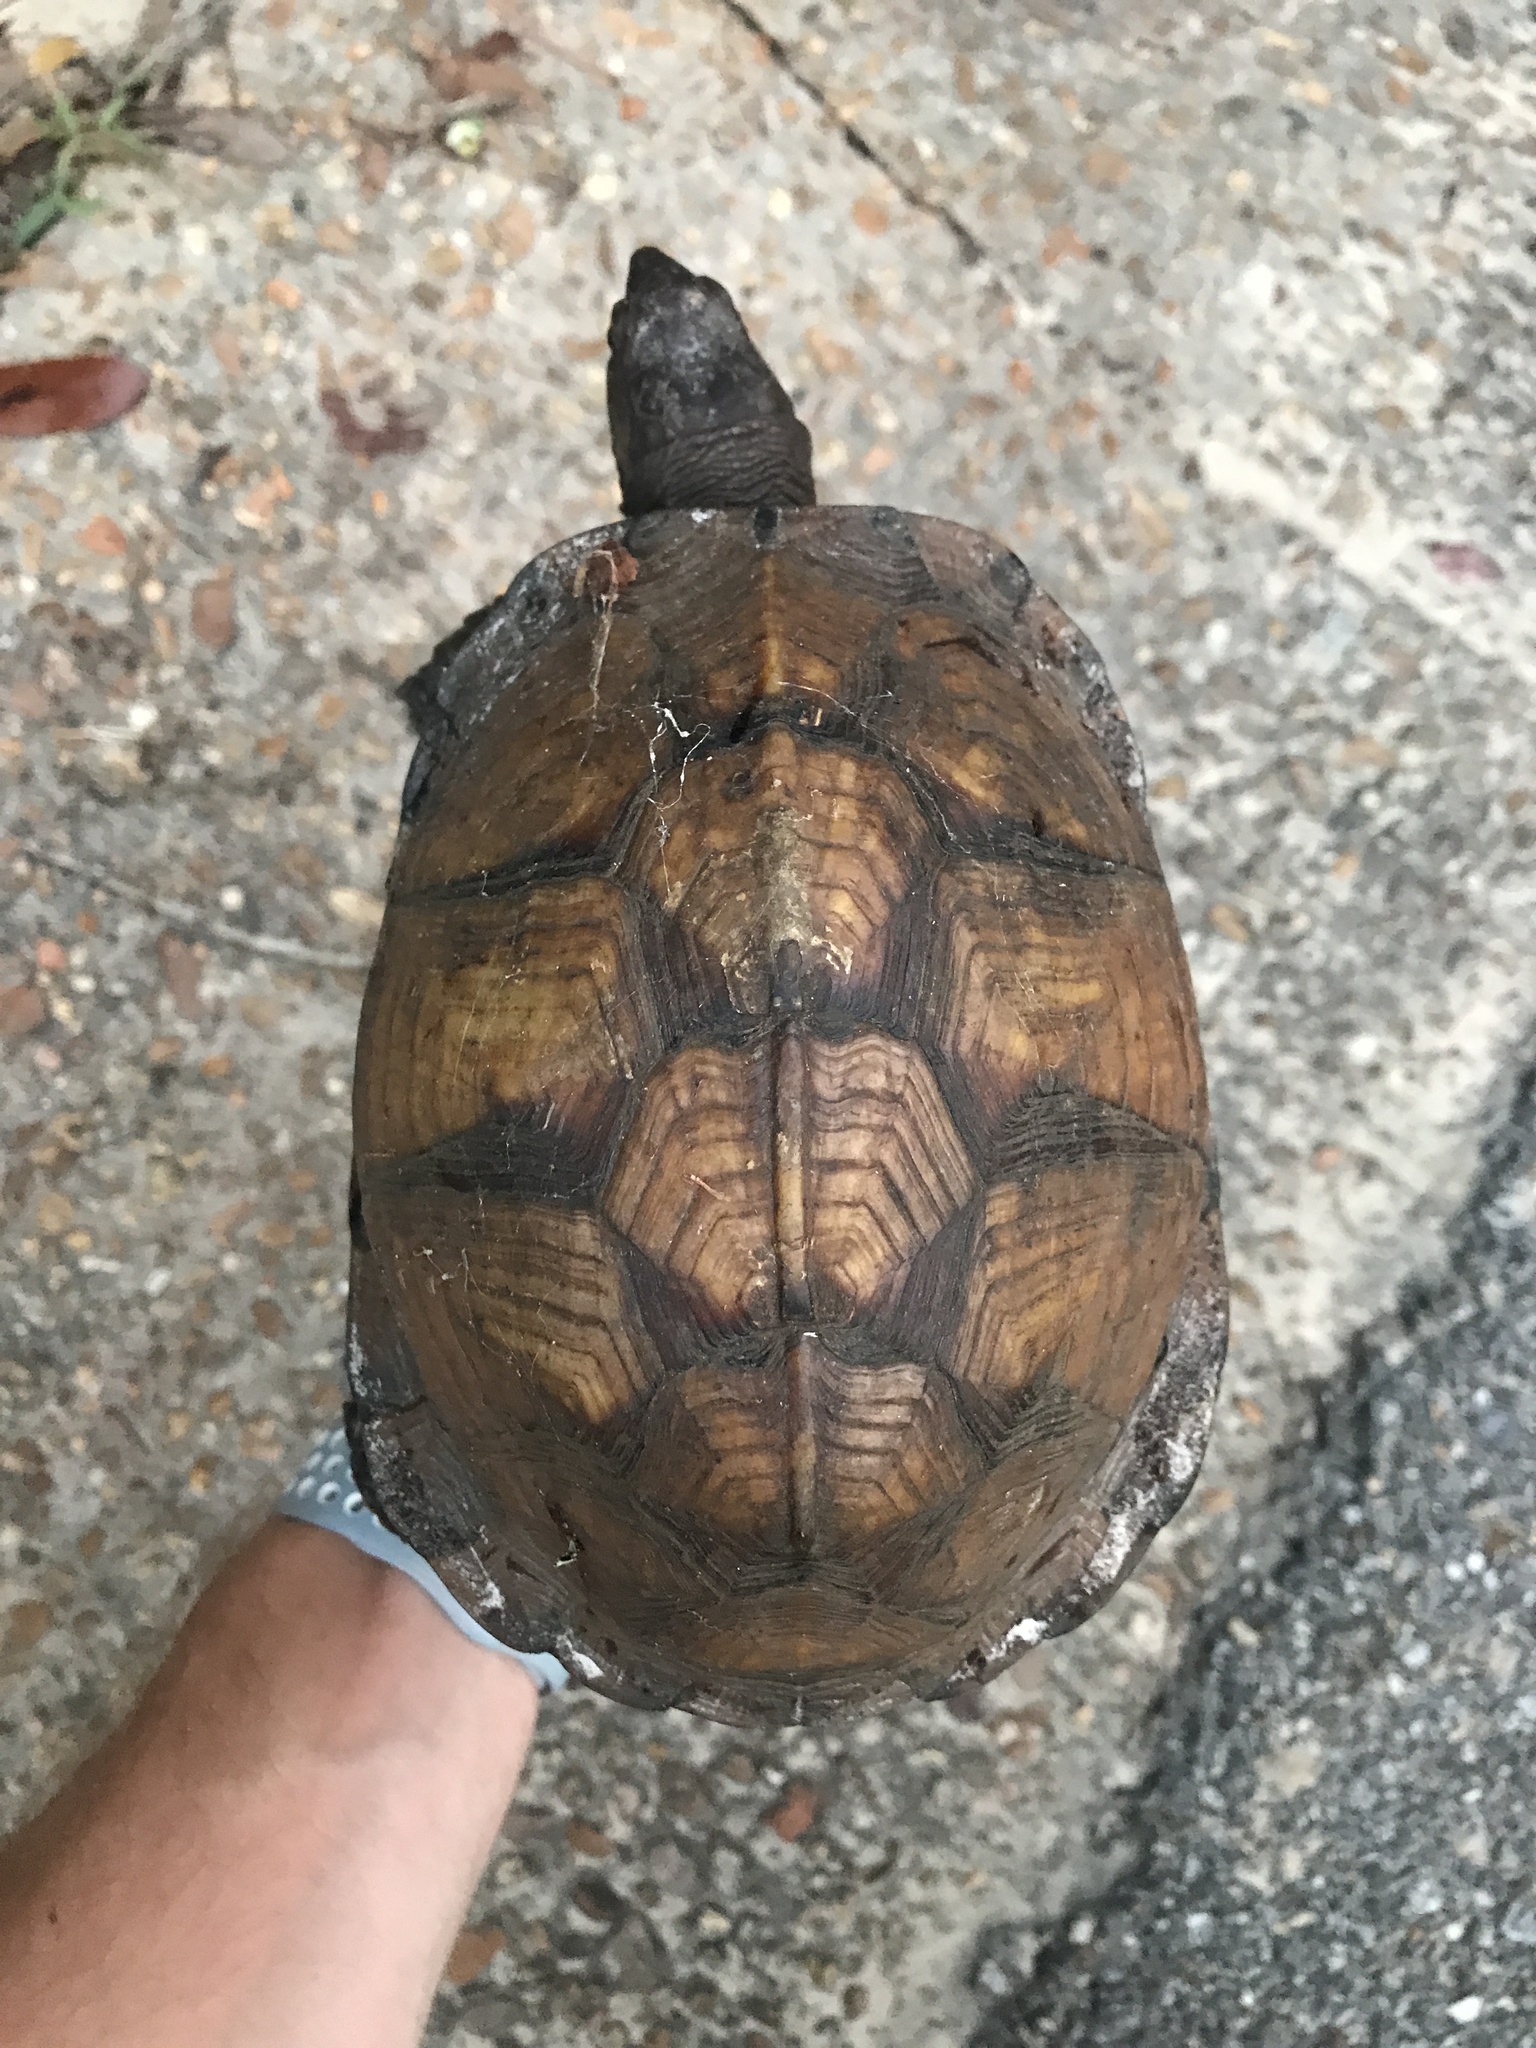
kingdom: Animalia
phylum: Chordata
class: Testudines
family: Emydidae
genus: Terrapene
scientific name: Terrapene carolina
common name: Common box turtle
